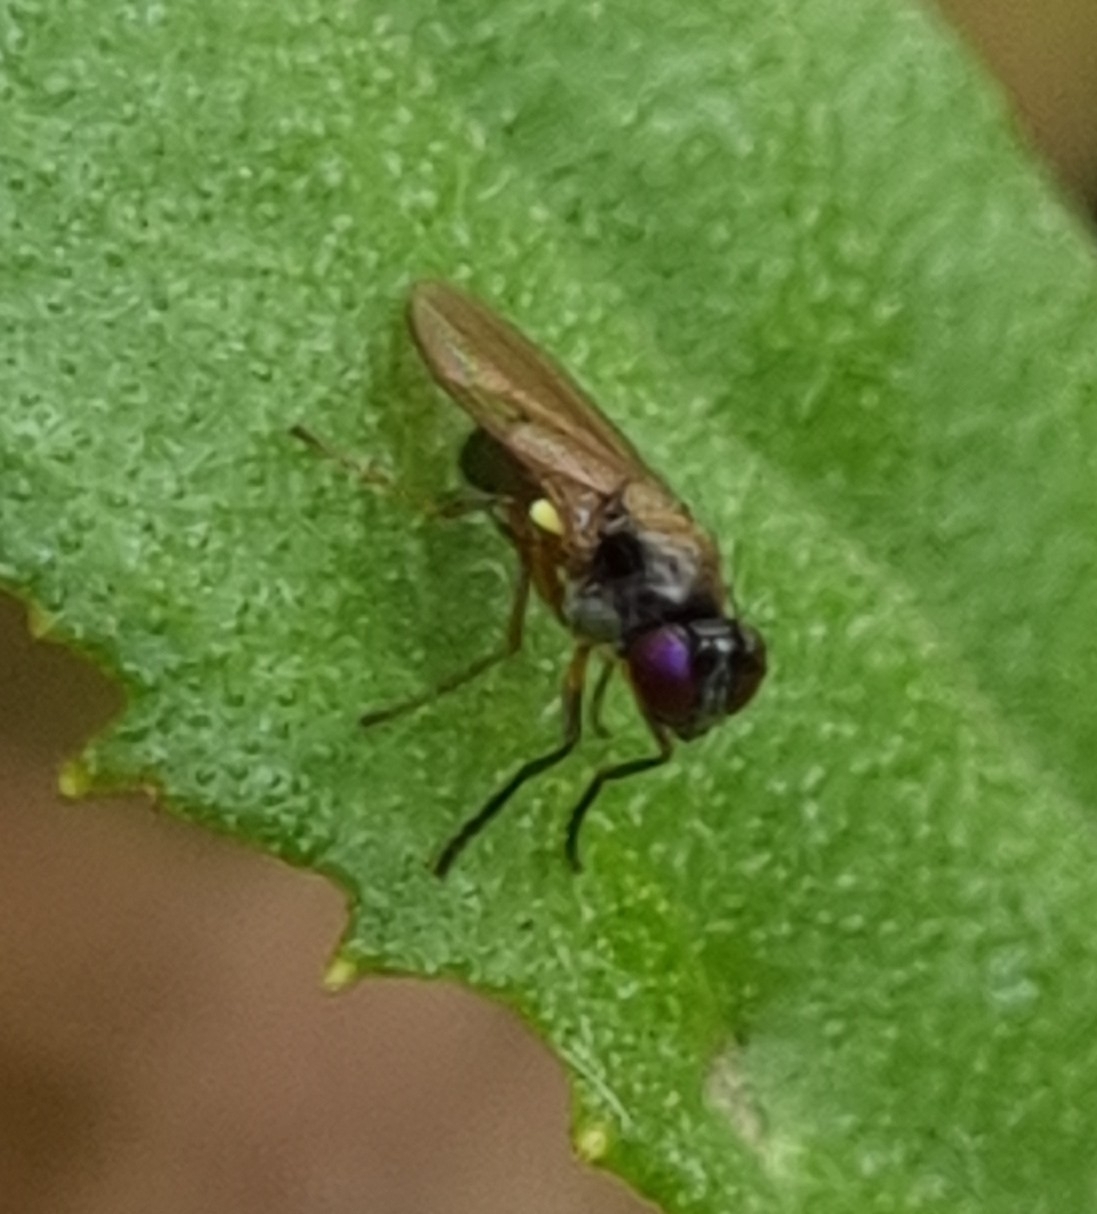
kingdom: Animalia
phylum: Arthropoda
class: Insecta
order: Diptera
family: Ephydridae
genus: Hydrellia
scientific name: Hydrellia tritici
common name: Shore fly
